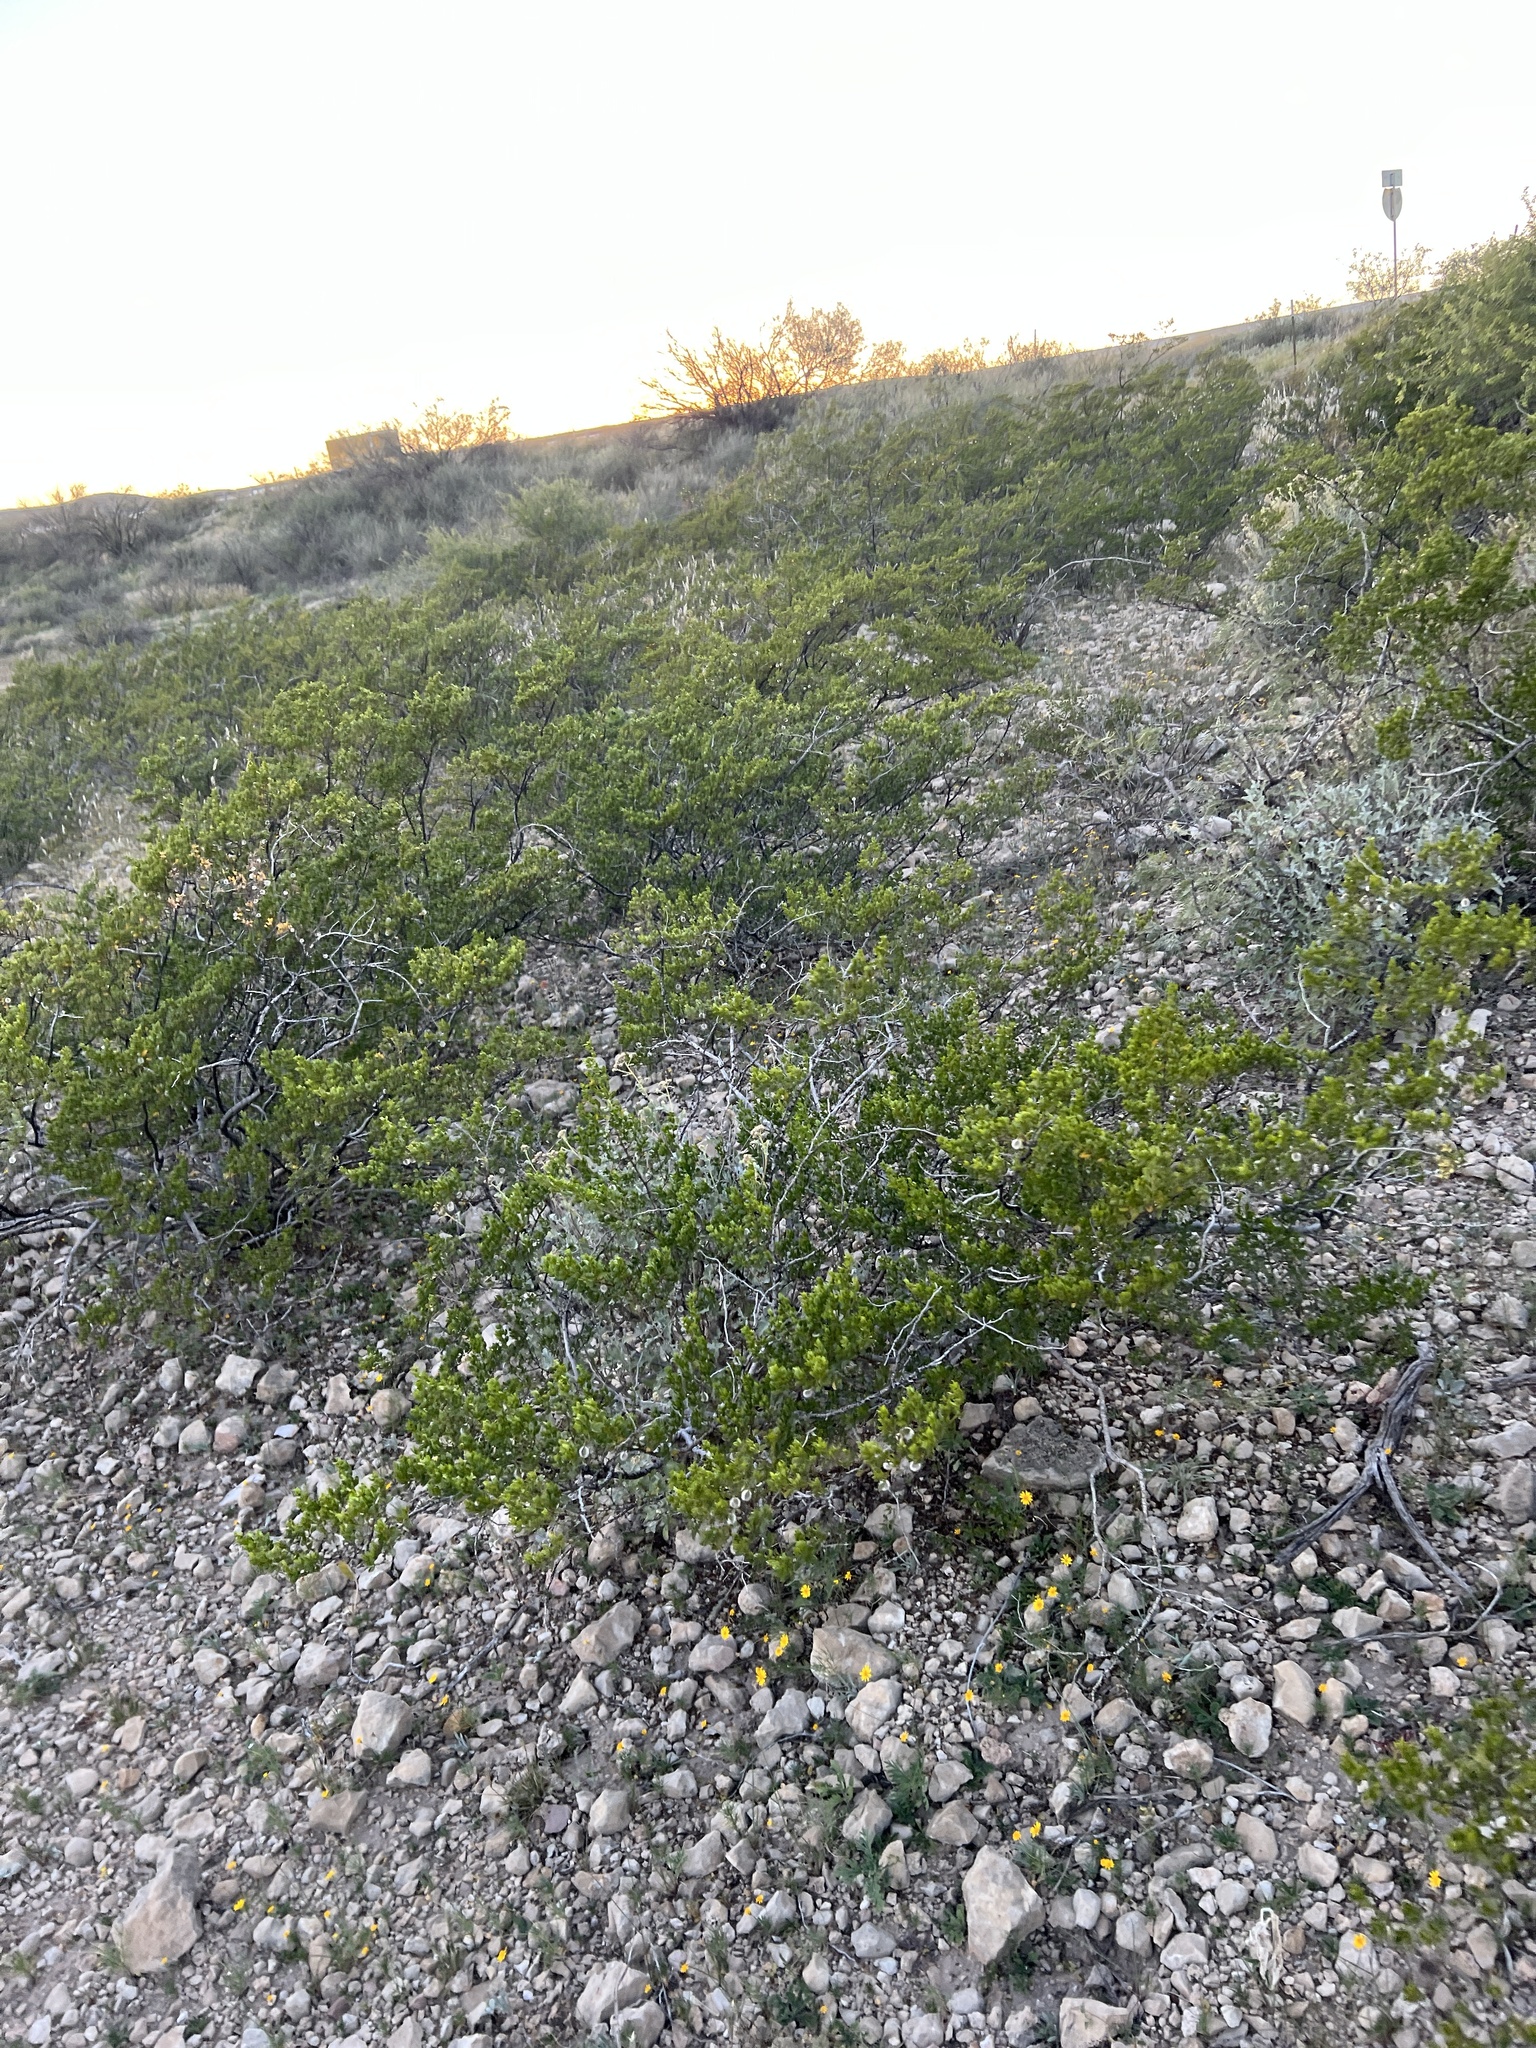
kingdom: Plantae
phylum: Tracheophyta
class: Magnoliopsida
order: Zygophyllales
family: Zygophyllaceae
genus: Larrea
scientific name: Larrea tridentata
